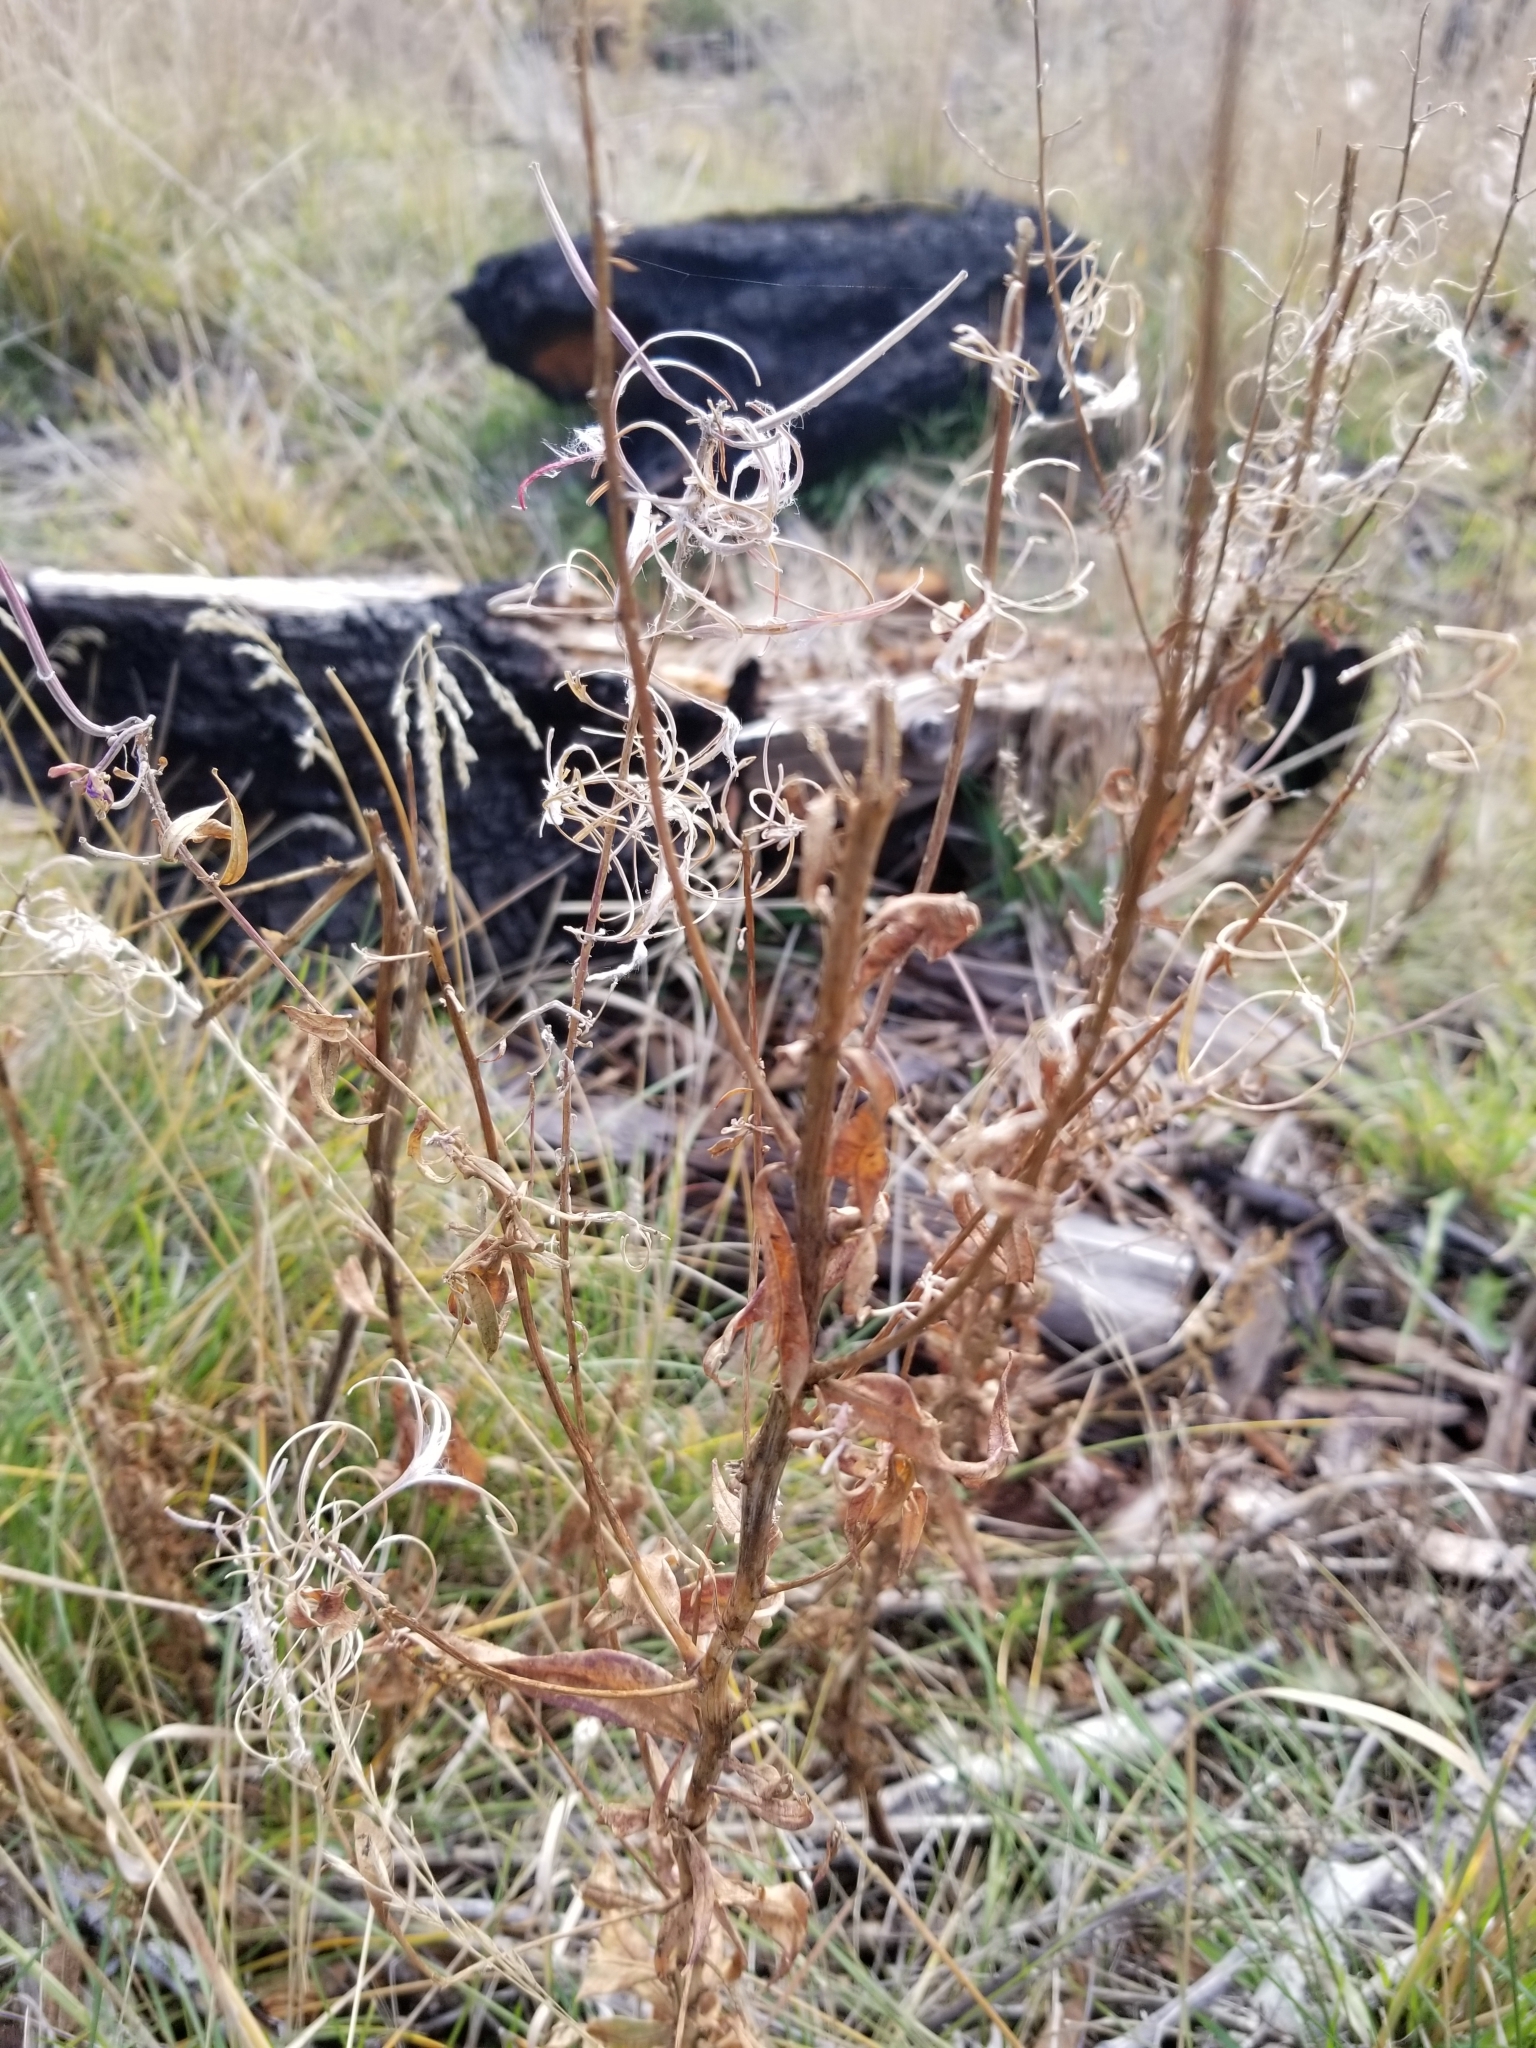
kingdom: Plantae
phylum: Tracheophyta
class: Magnoliopsida
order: Myrtales
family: Onagraceae
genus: Chamaenerion
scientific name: Chamaenerion angustifolium
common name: Fireweed
